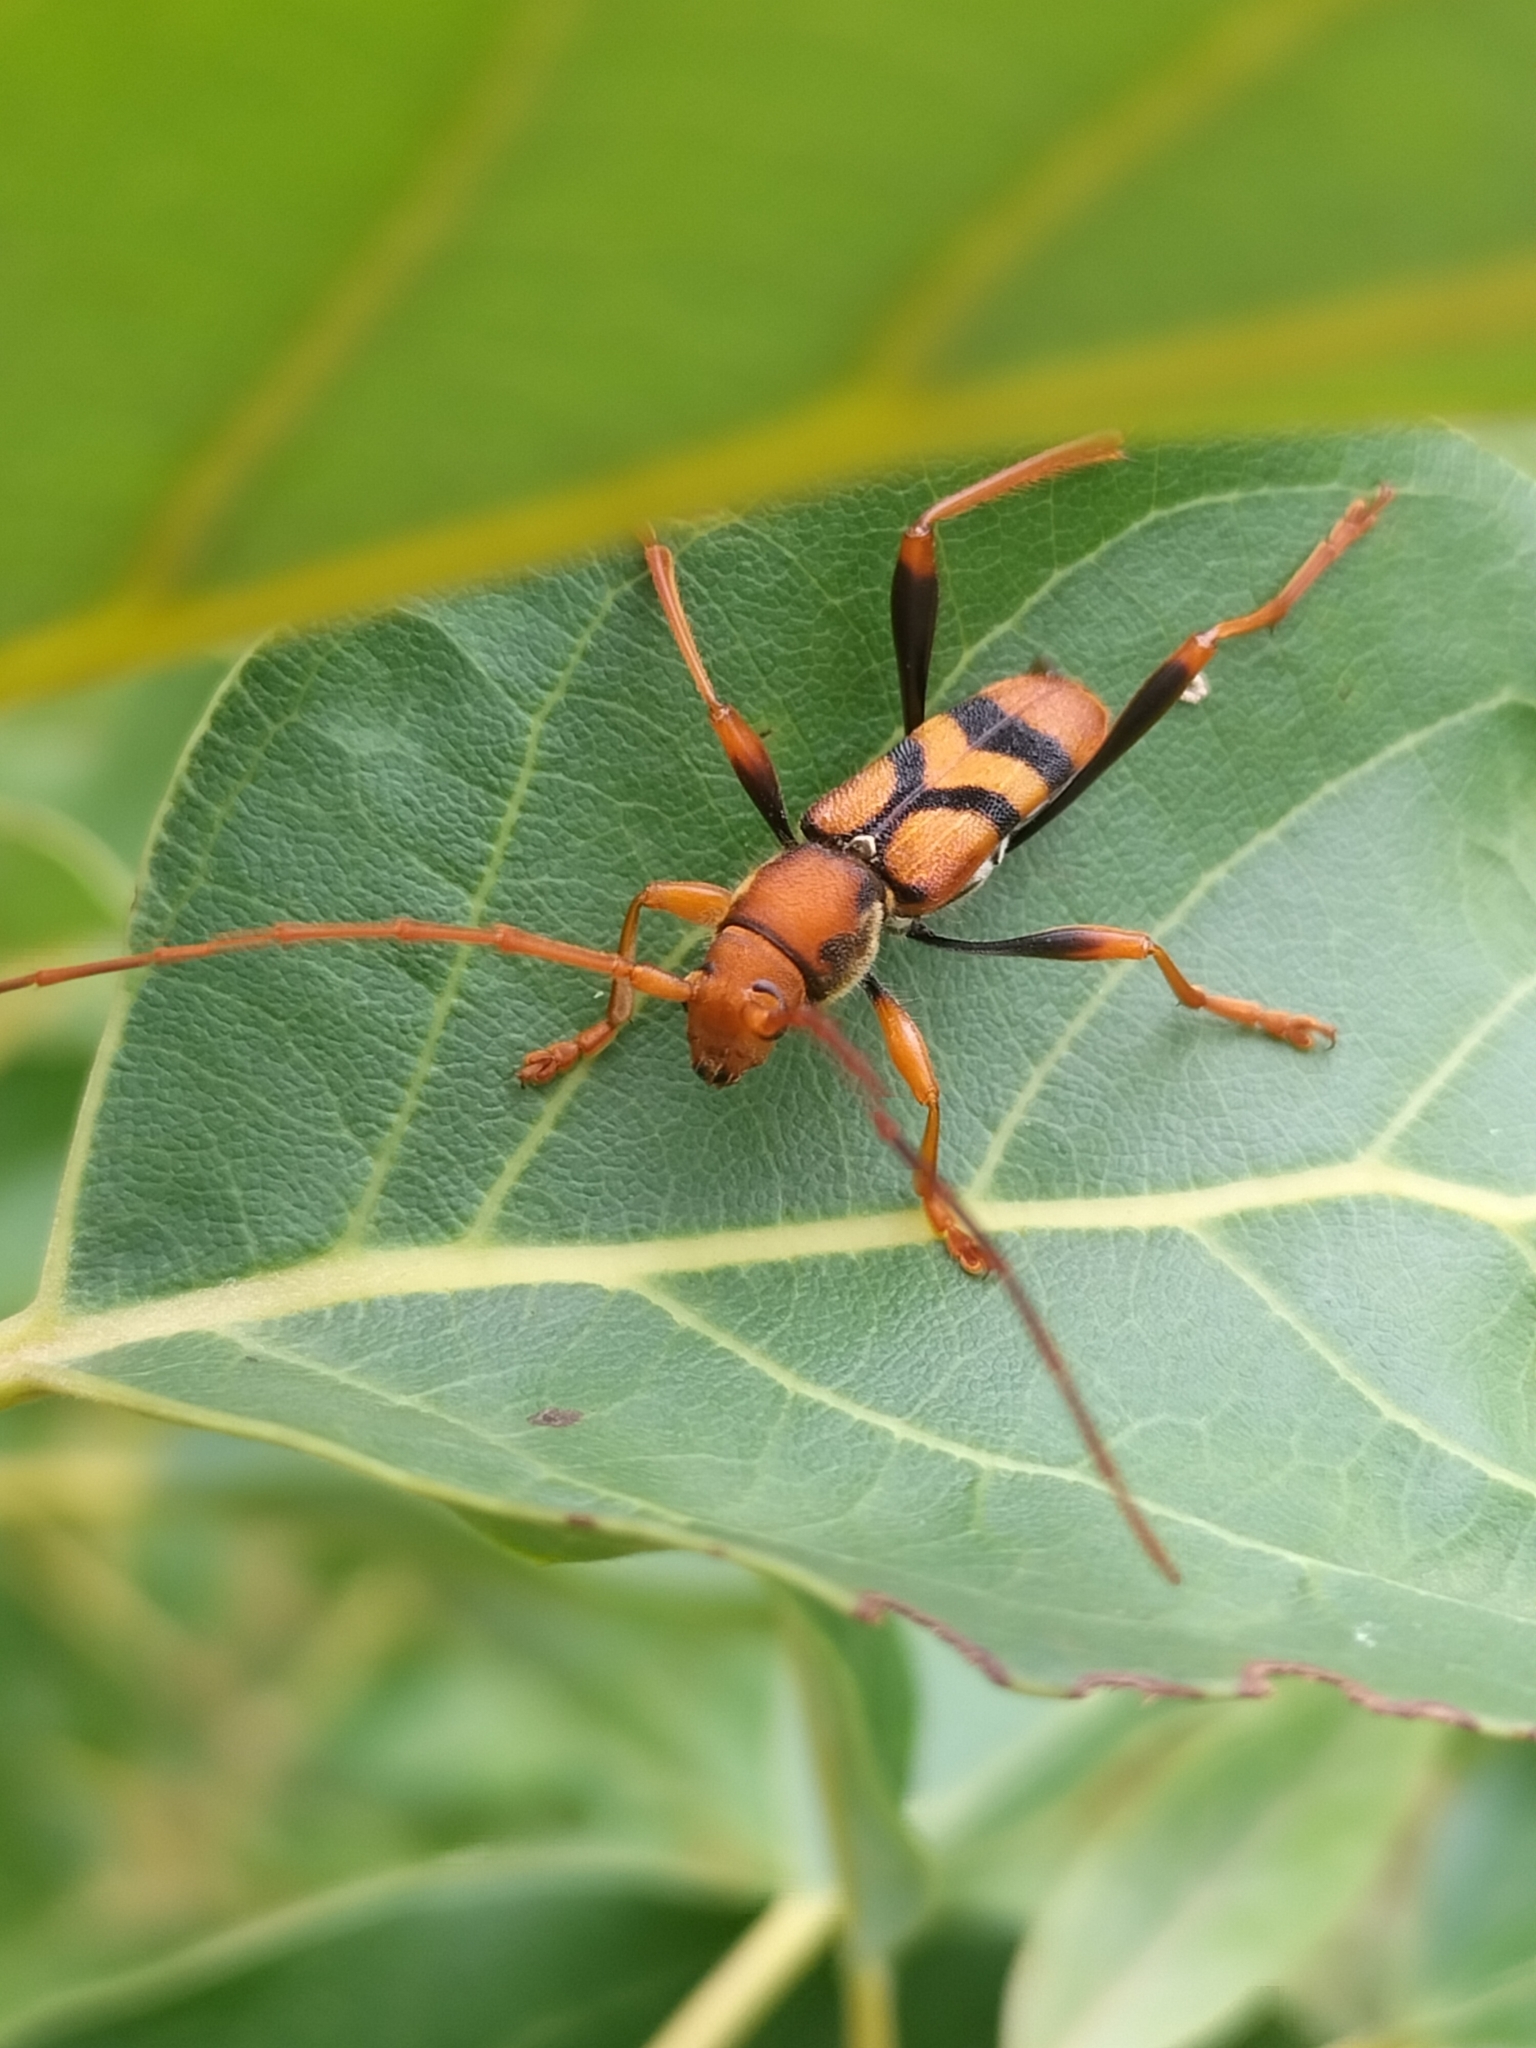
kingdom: Animalia
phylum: Arthropoda
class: Insecta
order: Coleoptera
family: Cerambycidae
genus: Aridaeus
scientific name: Aridaeus thoracicus
